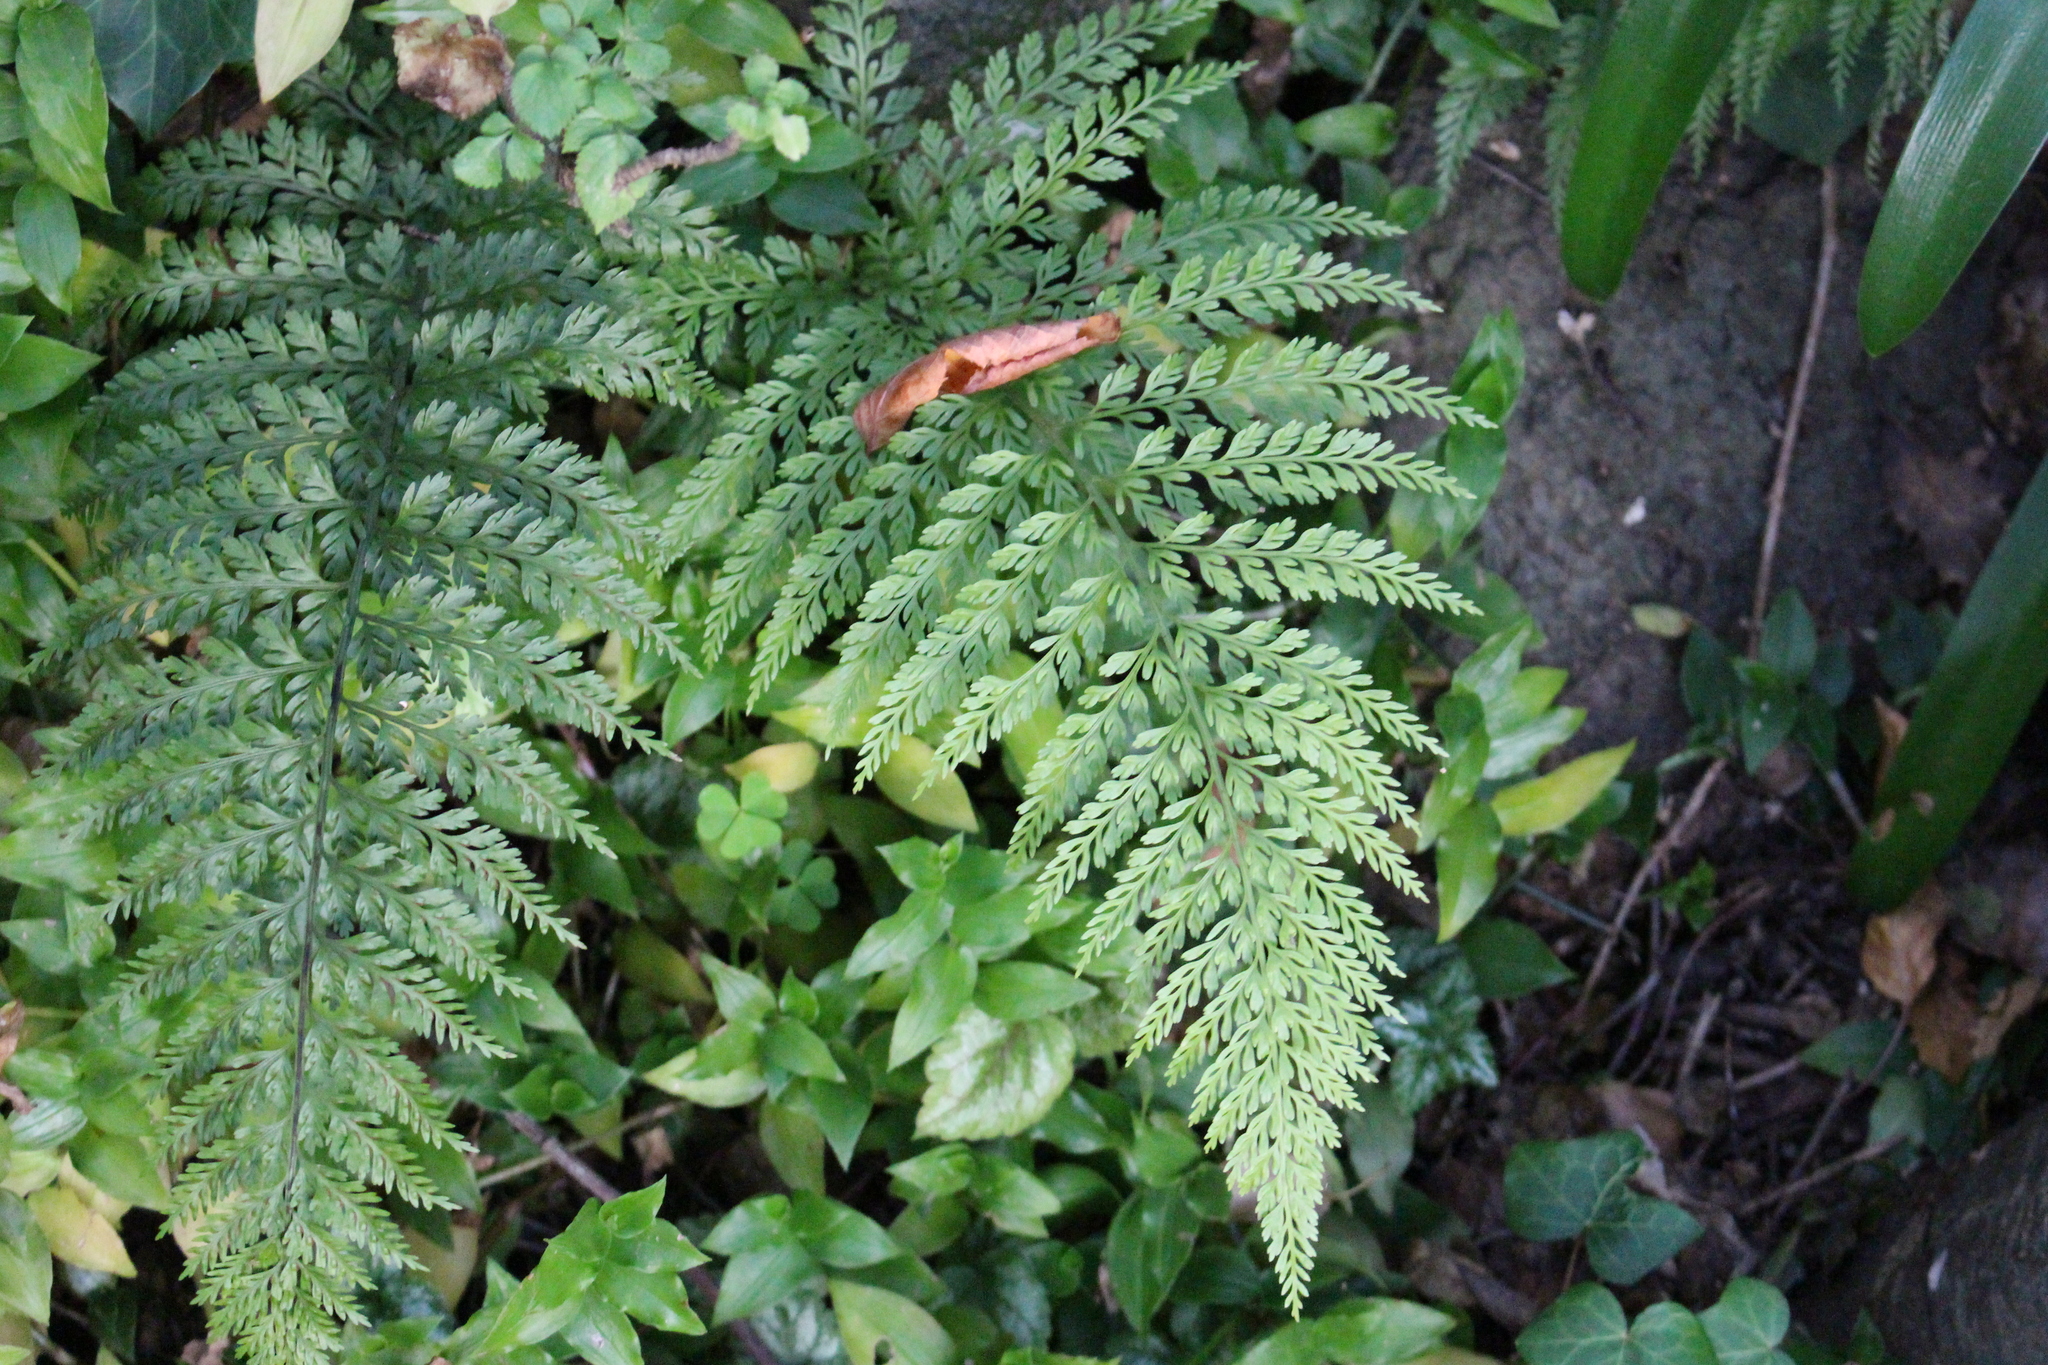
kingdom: Plantae
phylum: Tracheophyta
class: Polypodiopsida
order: Polypodiales
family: Aspleniaceae
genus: Asplenium
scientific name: Asplenium
